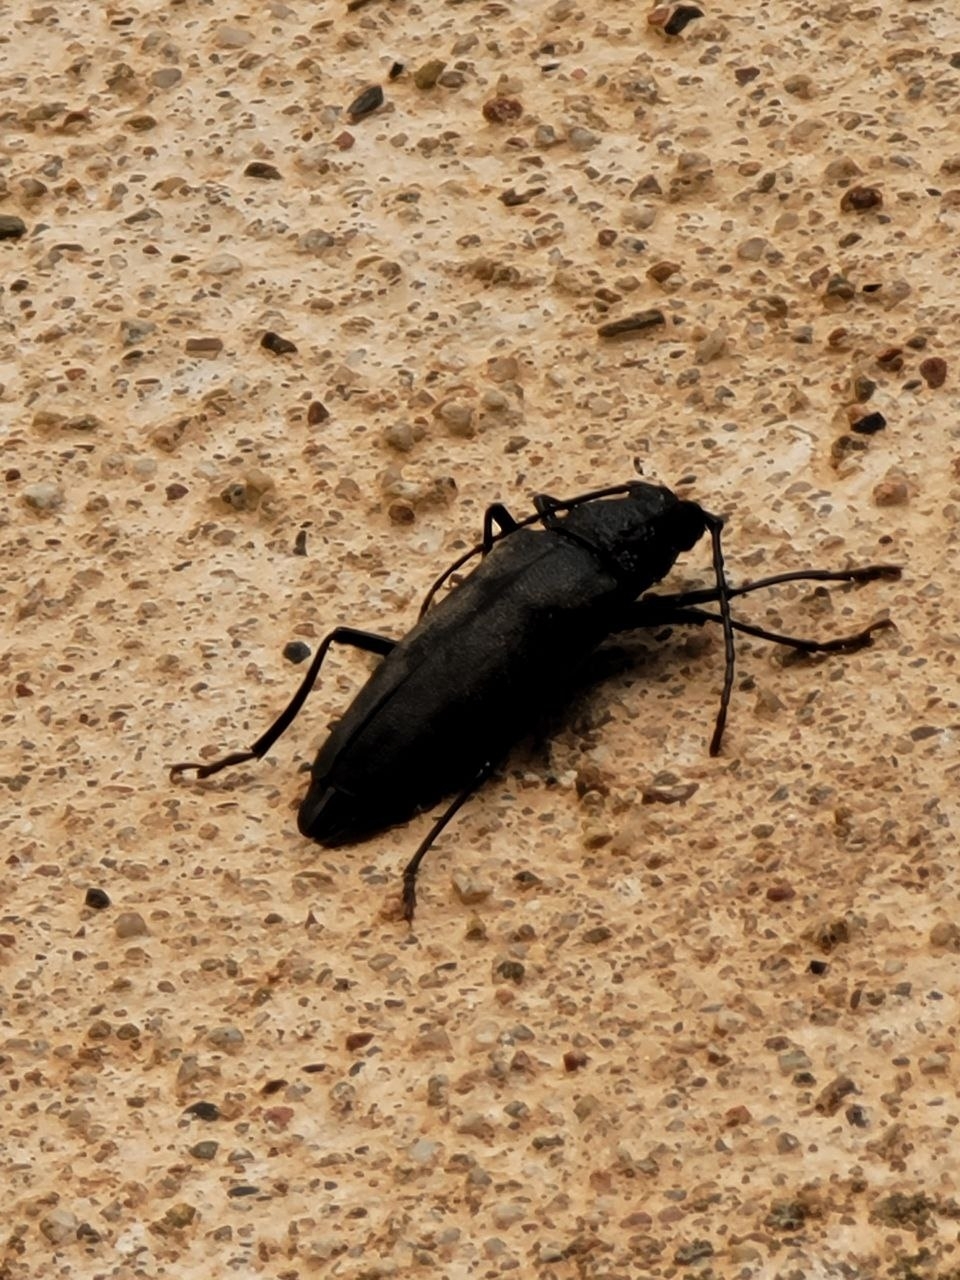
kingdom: Animalia
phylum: Arthropoda
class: Insecta
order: Coleoptera
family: Cerambycidae
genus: Ergates
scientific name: Ergates faber
